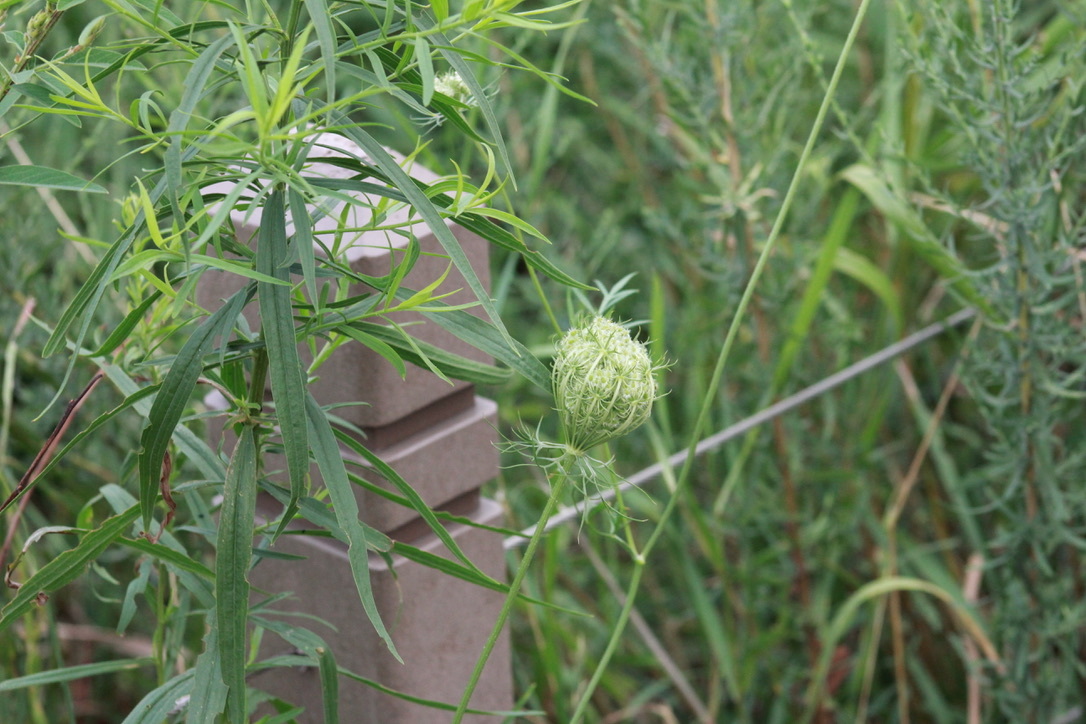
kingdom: Plantae
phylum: Tracheophyta
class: Magnoliopsida
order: Apiales
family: Apiaceae
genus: Daucus
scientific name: Daucus carota
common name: Wild carrot
